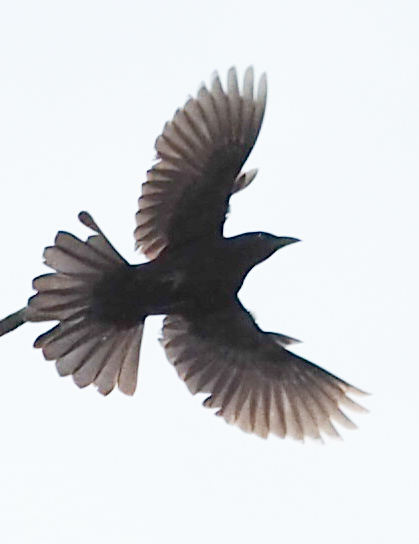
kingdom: Animalia
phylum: Chordata
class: Aves
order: Passeriformes
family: Icteridae
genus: Quiscalus
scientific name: Quiscalus quiscula
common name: Common grackle
